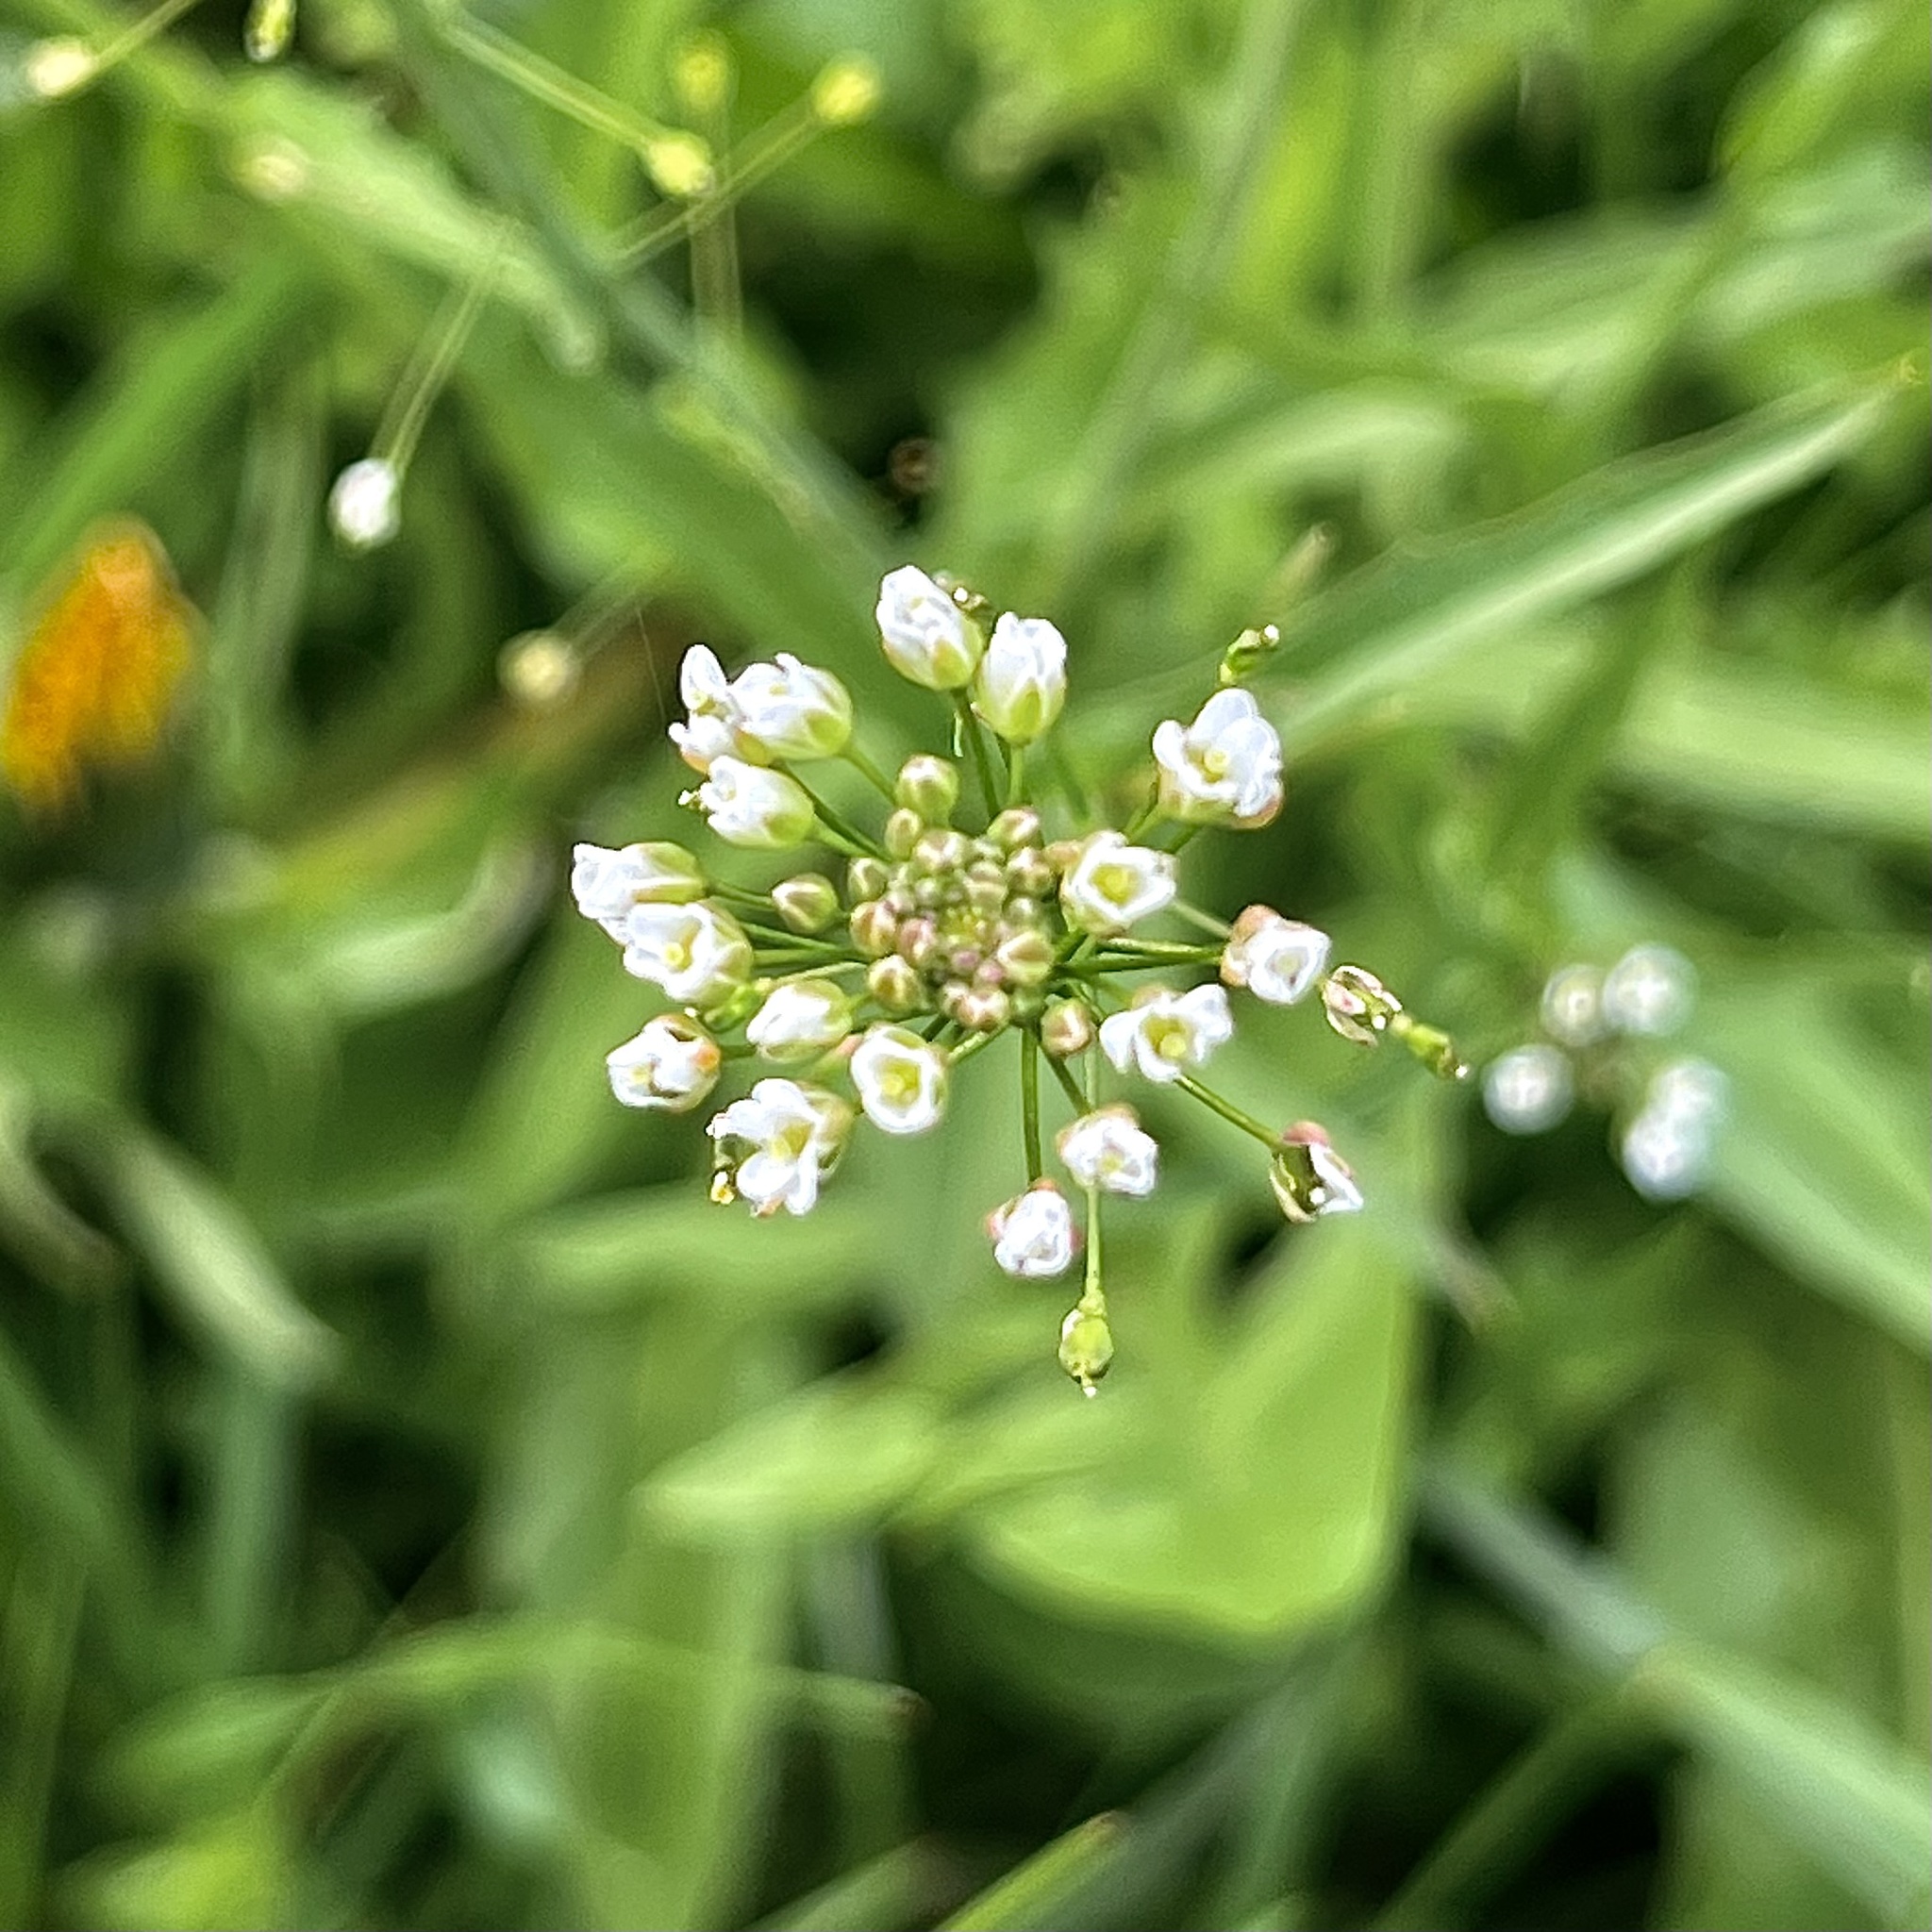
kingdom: Plantae
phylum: Tracheophyta
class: Magnoliopsida
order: Brassicales
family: Brassicaceae
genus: Capsella
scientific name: Capsella bursa-pastoris
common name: Shepherd's purse
